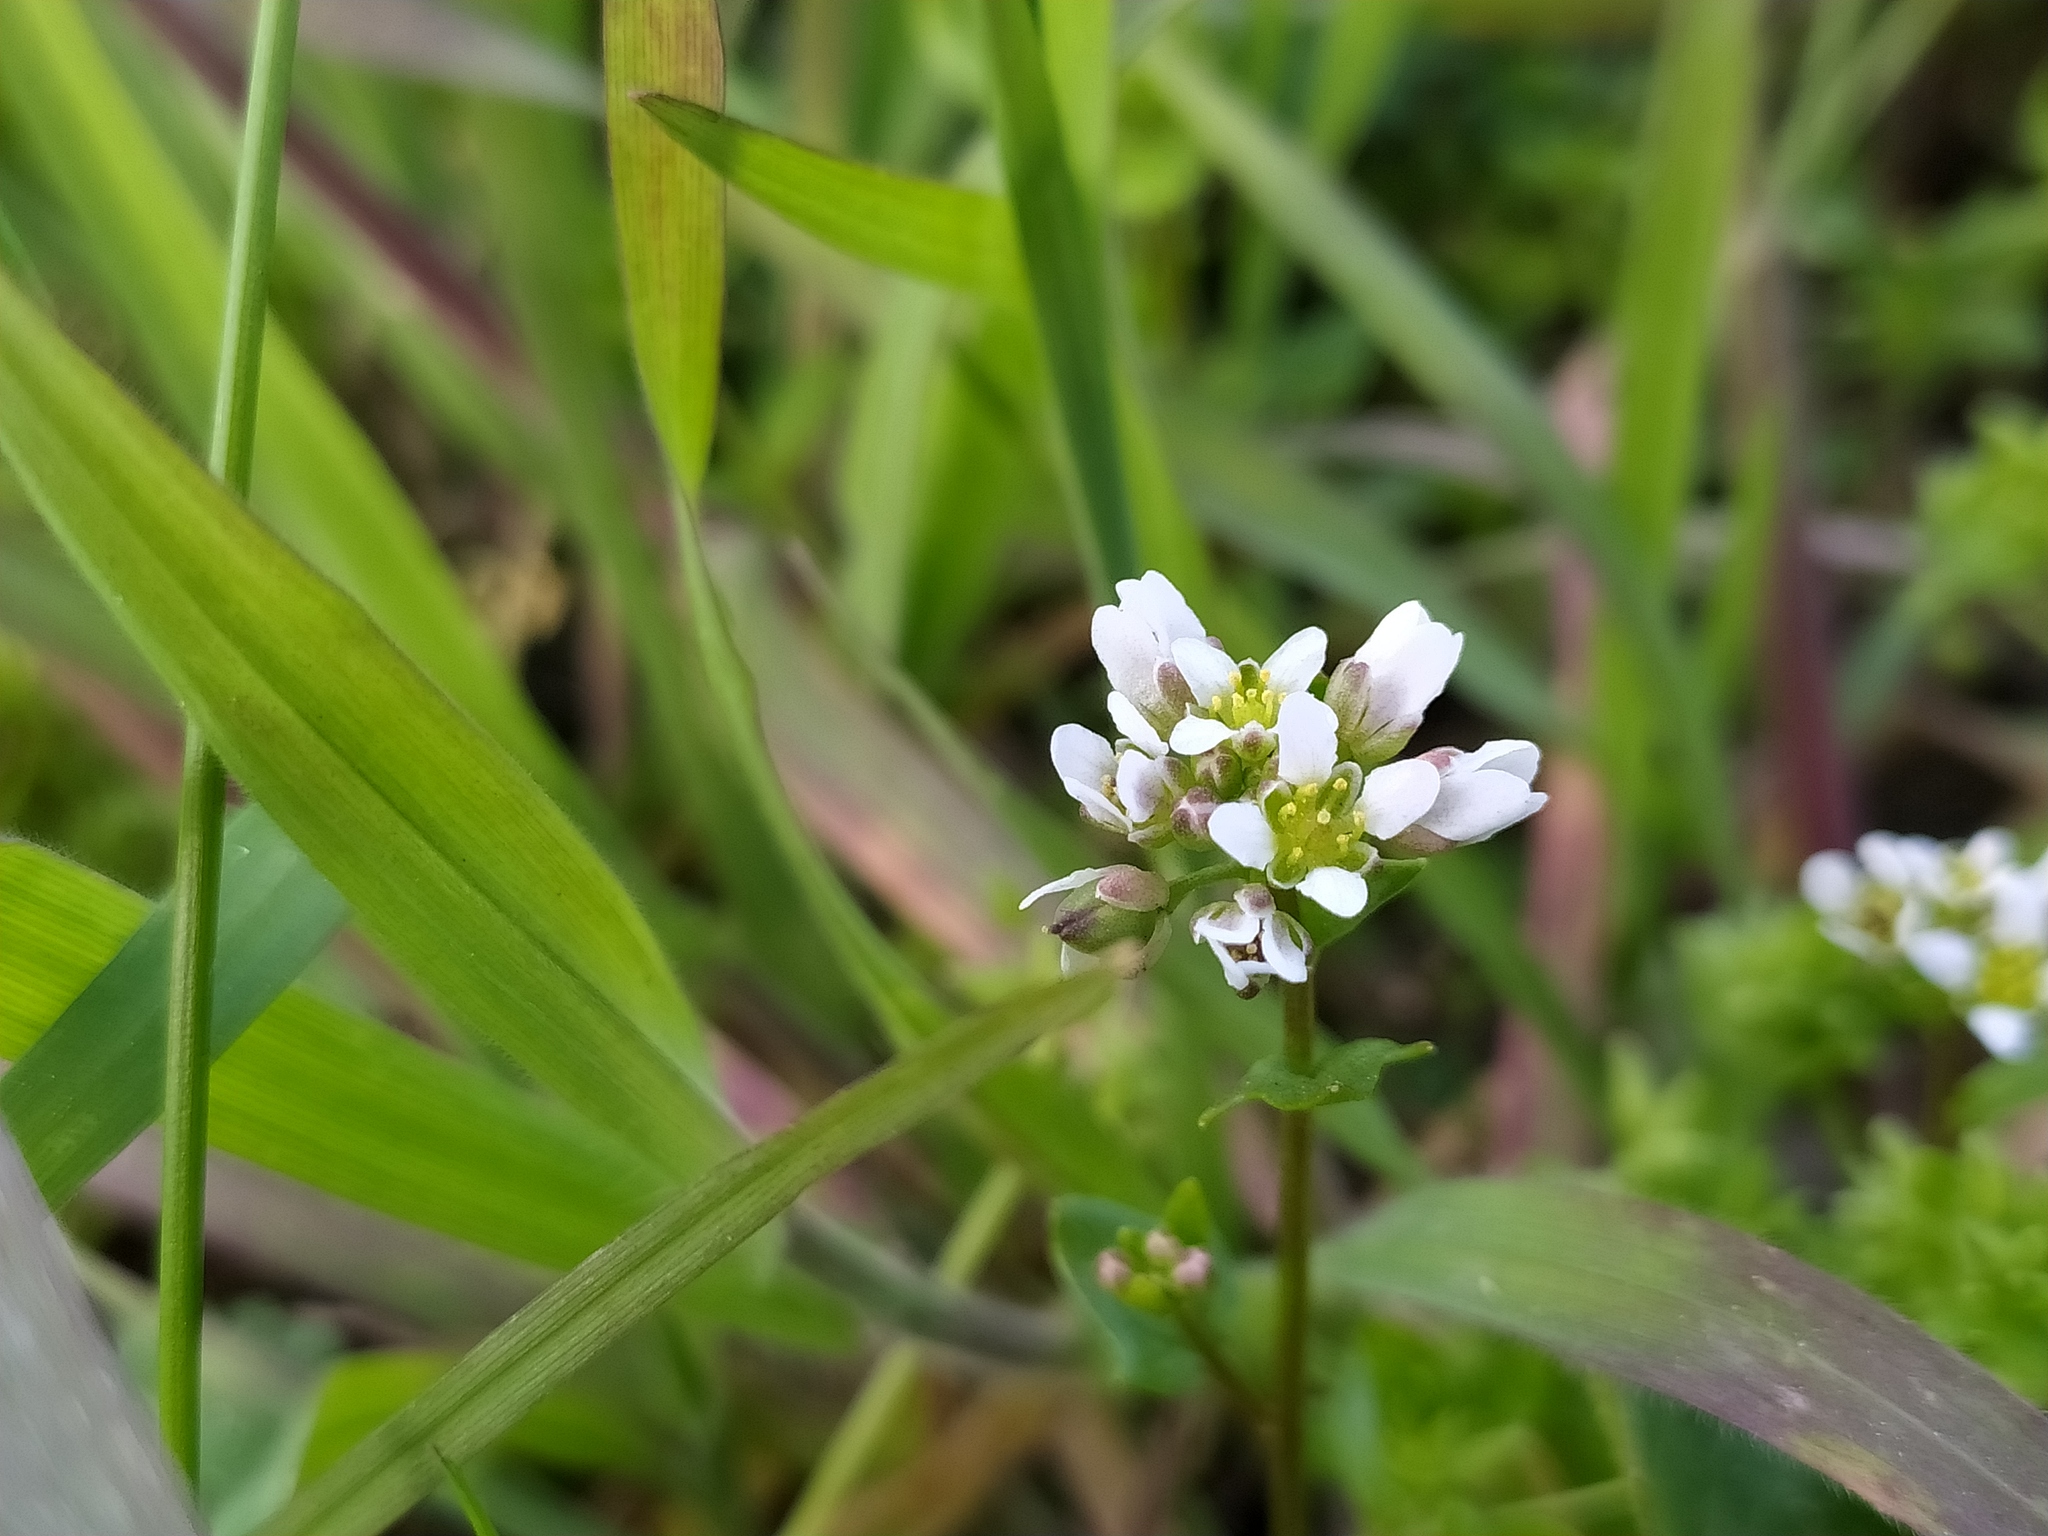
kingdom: Plantae
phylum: Tracheophyta
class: Magnoliopsida
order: Brassicales
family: Brassicaceae
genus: Cochlearia
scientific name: Cochlearia danica
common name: Early scurvygrass
